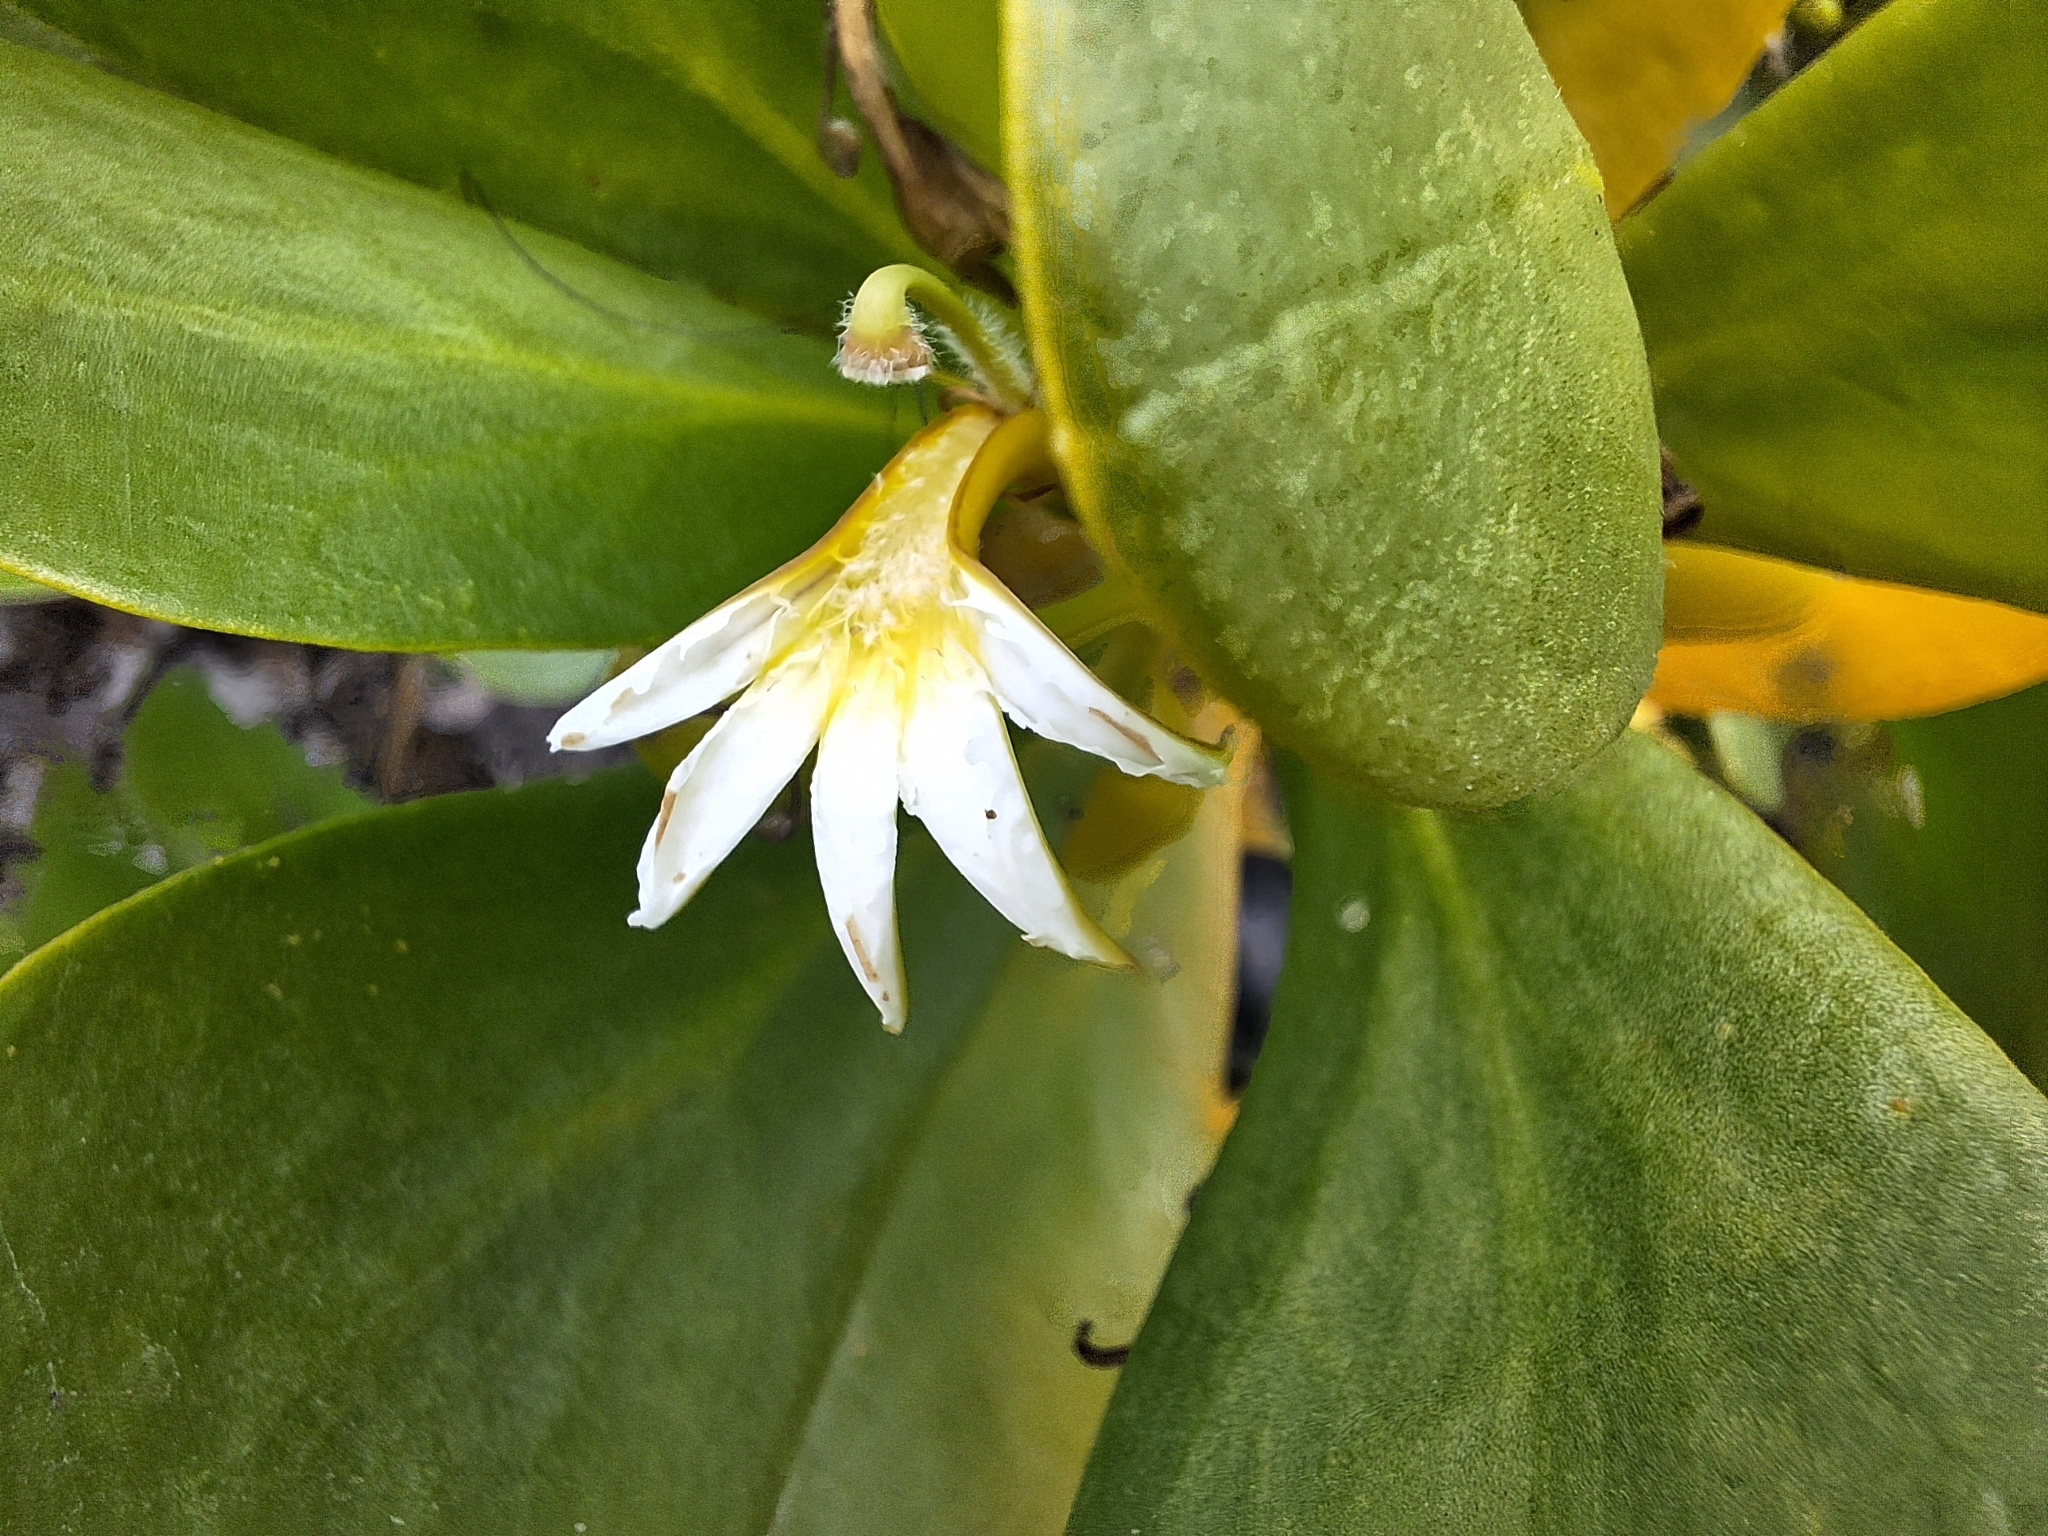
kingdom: Plantae
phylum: Tracheophyta
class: Magnoliopsida
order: Asterales
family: Goodeniaceae
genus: Scaevola
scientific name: Scaevola plumieri
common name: Gull feed
